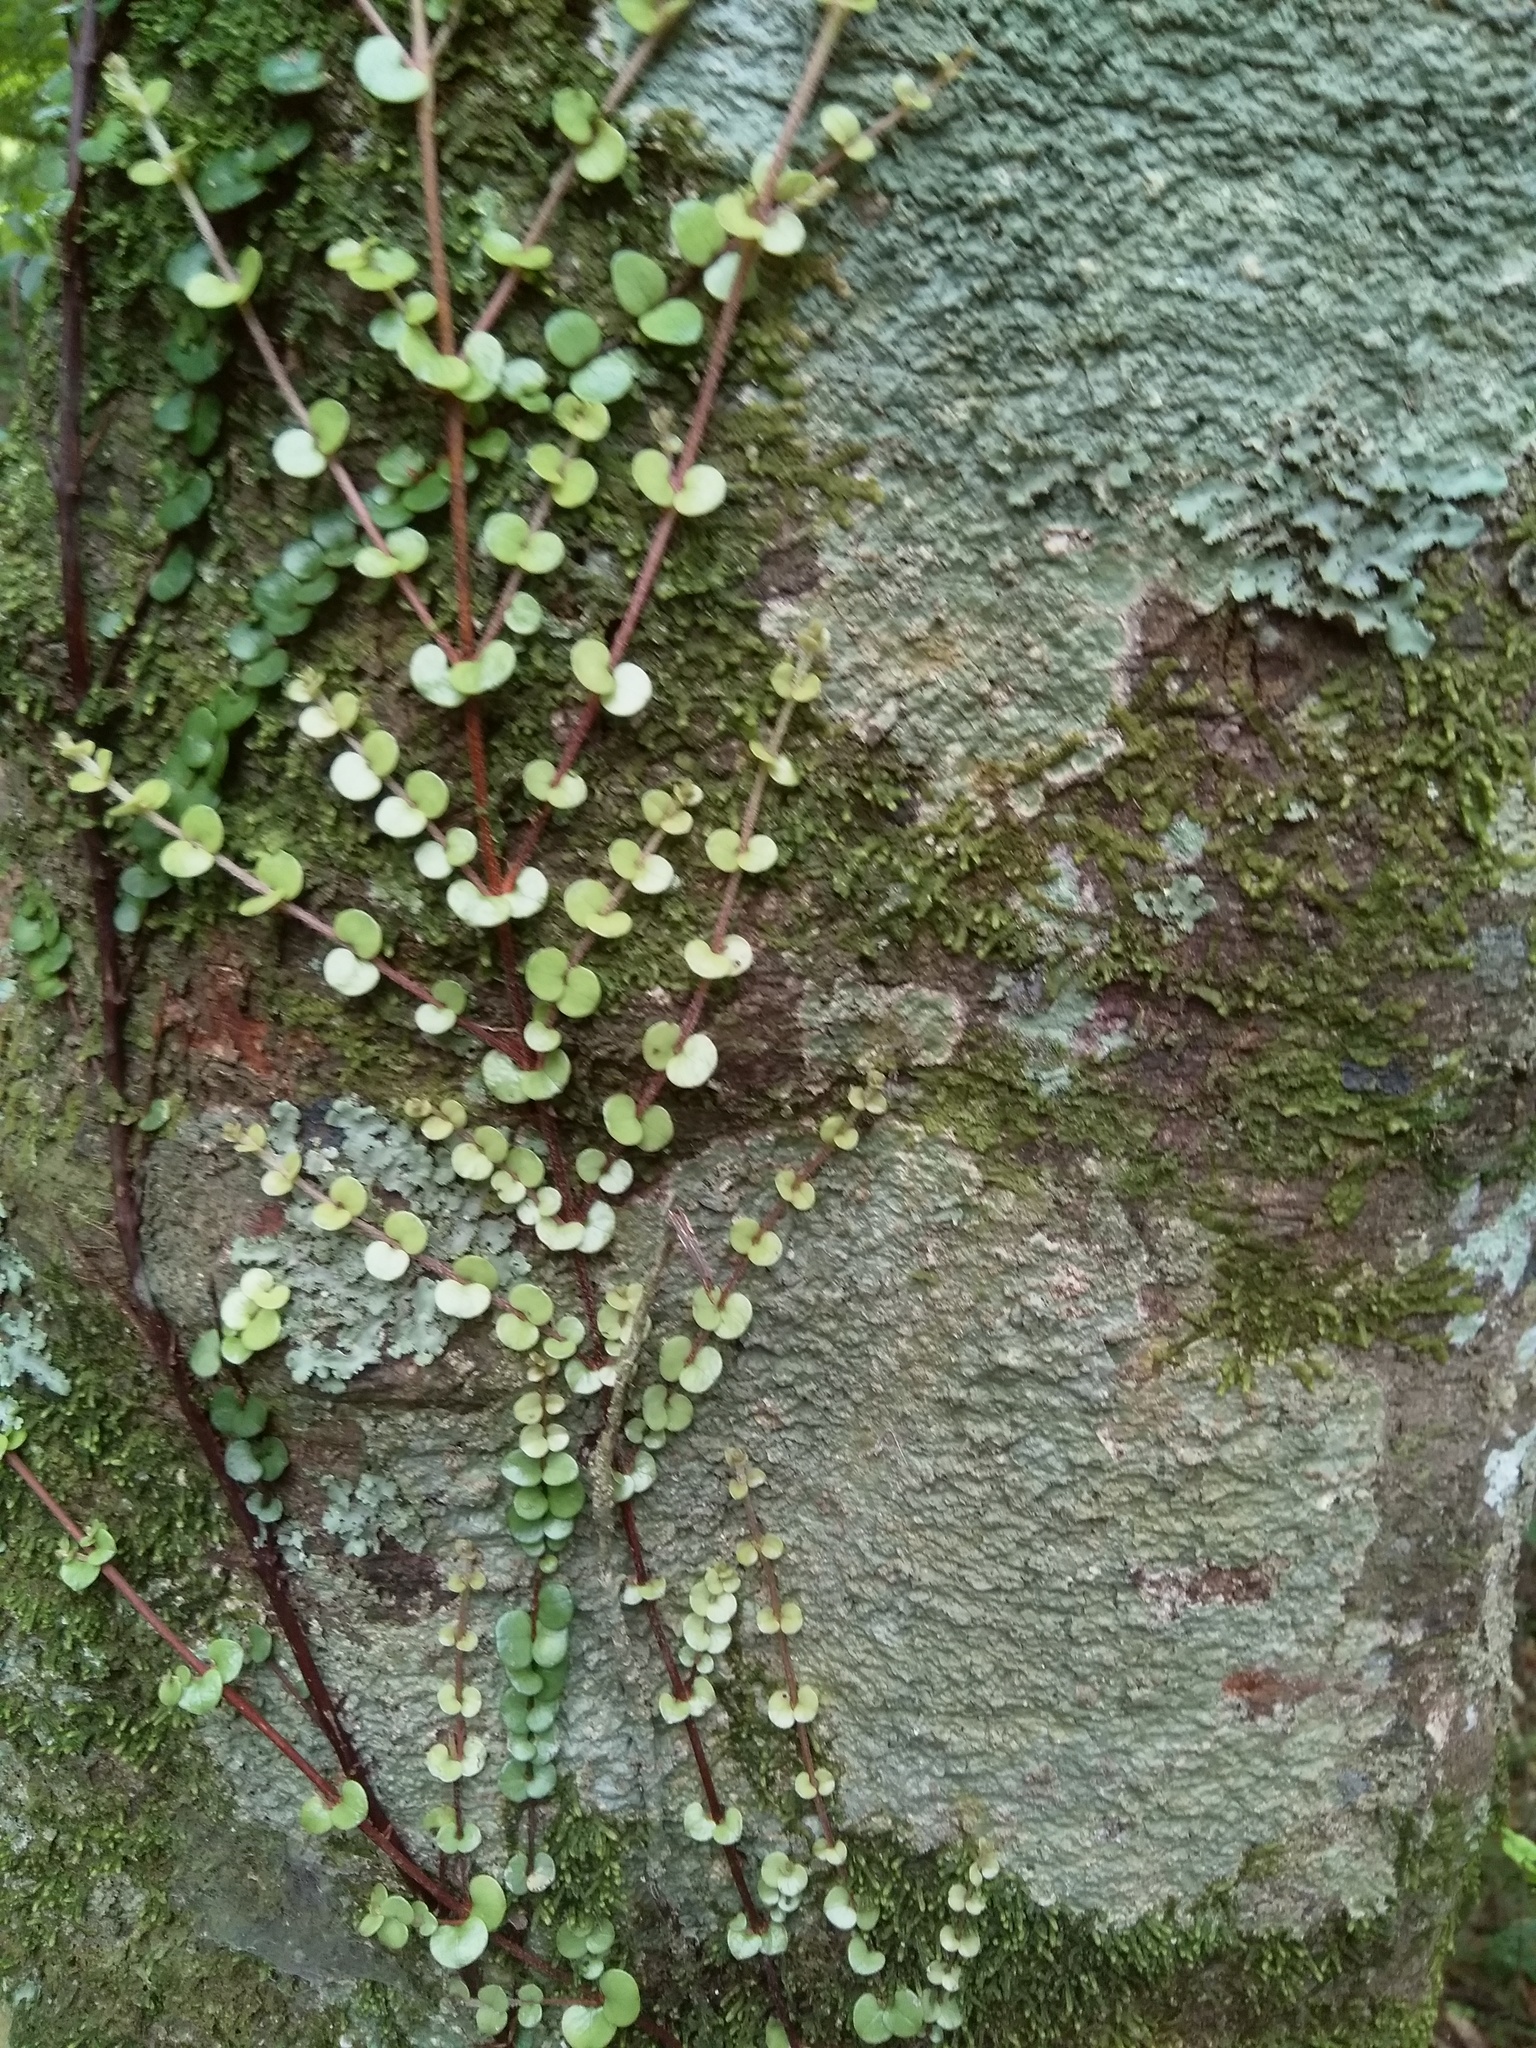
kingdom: Plantae
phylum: Tracheophyta
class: Magnoliopsida
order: Myrtales
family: Myrtaceae
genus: Metrosideros
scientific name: Metrosideros perforata
